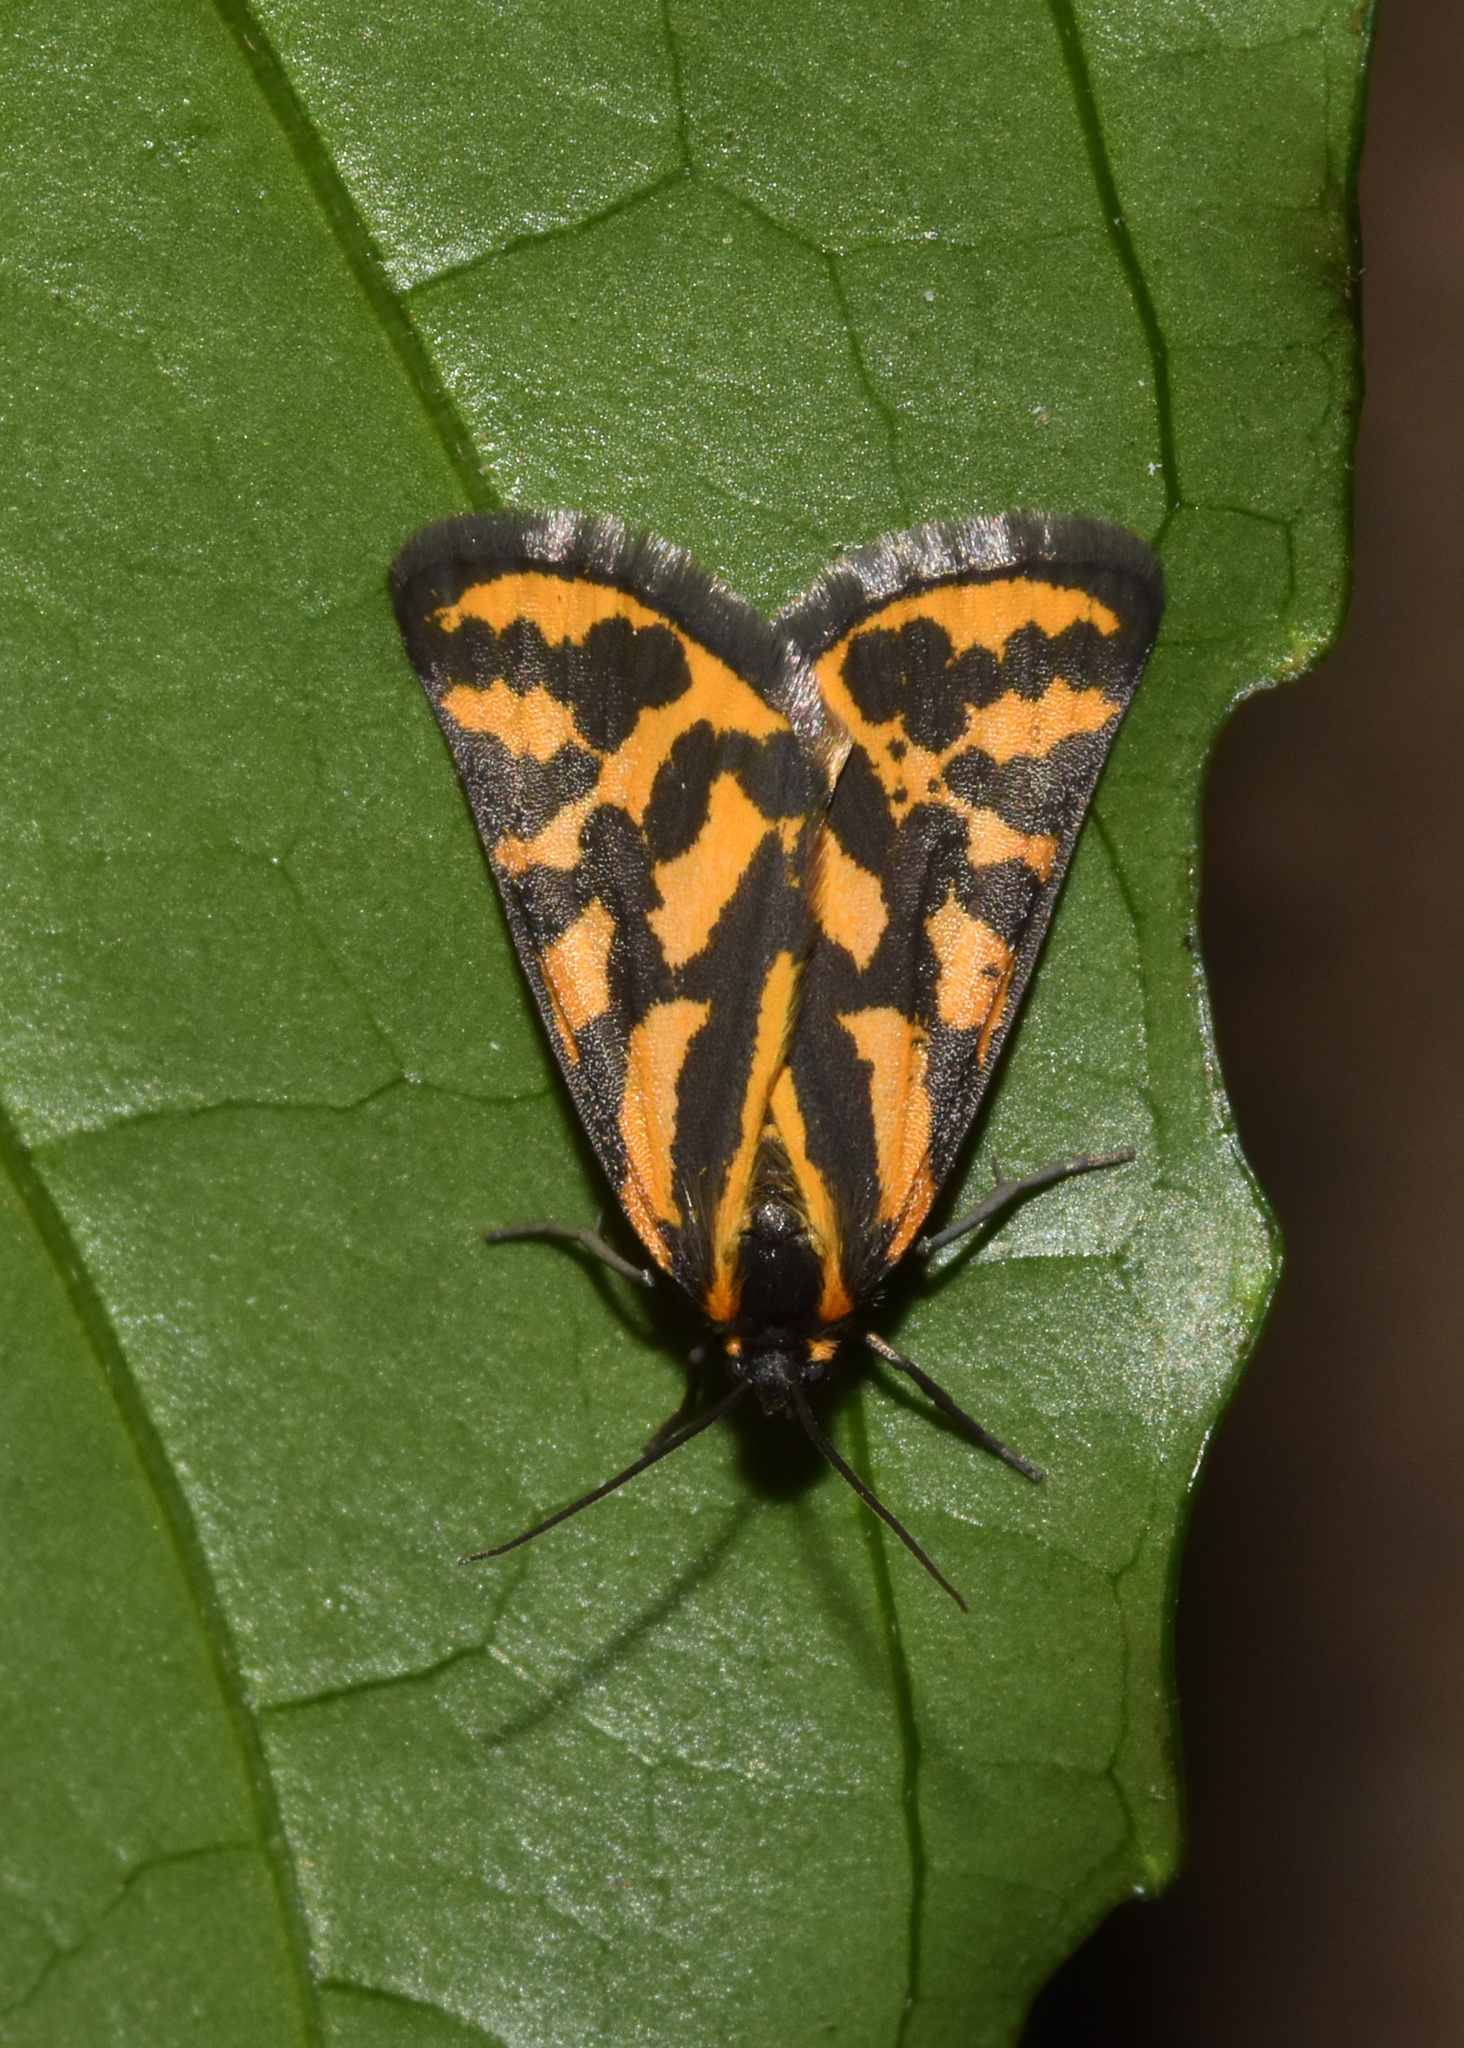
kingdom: Animalia
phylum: Arthropoda
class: Insecta
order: Lepidoptera
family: Geometridae
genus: Durbana
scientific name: Durbana setinata
